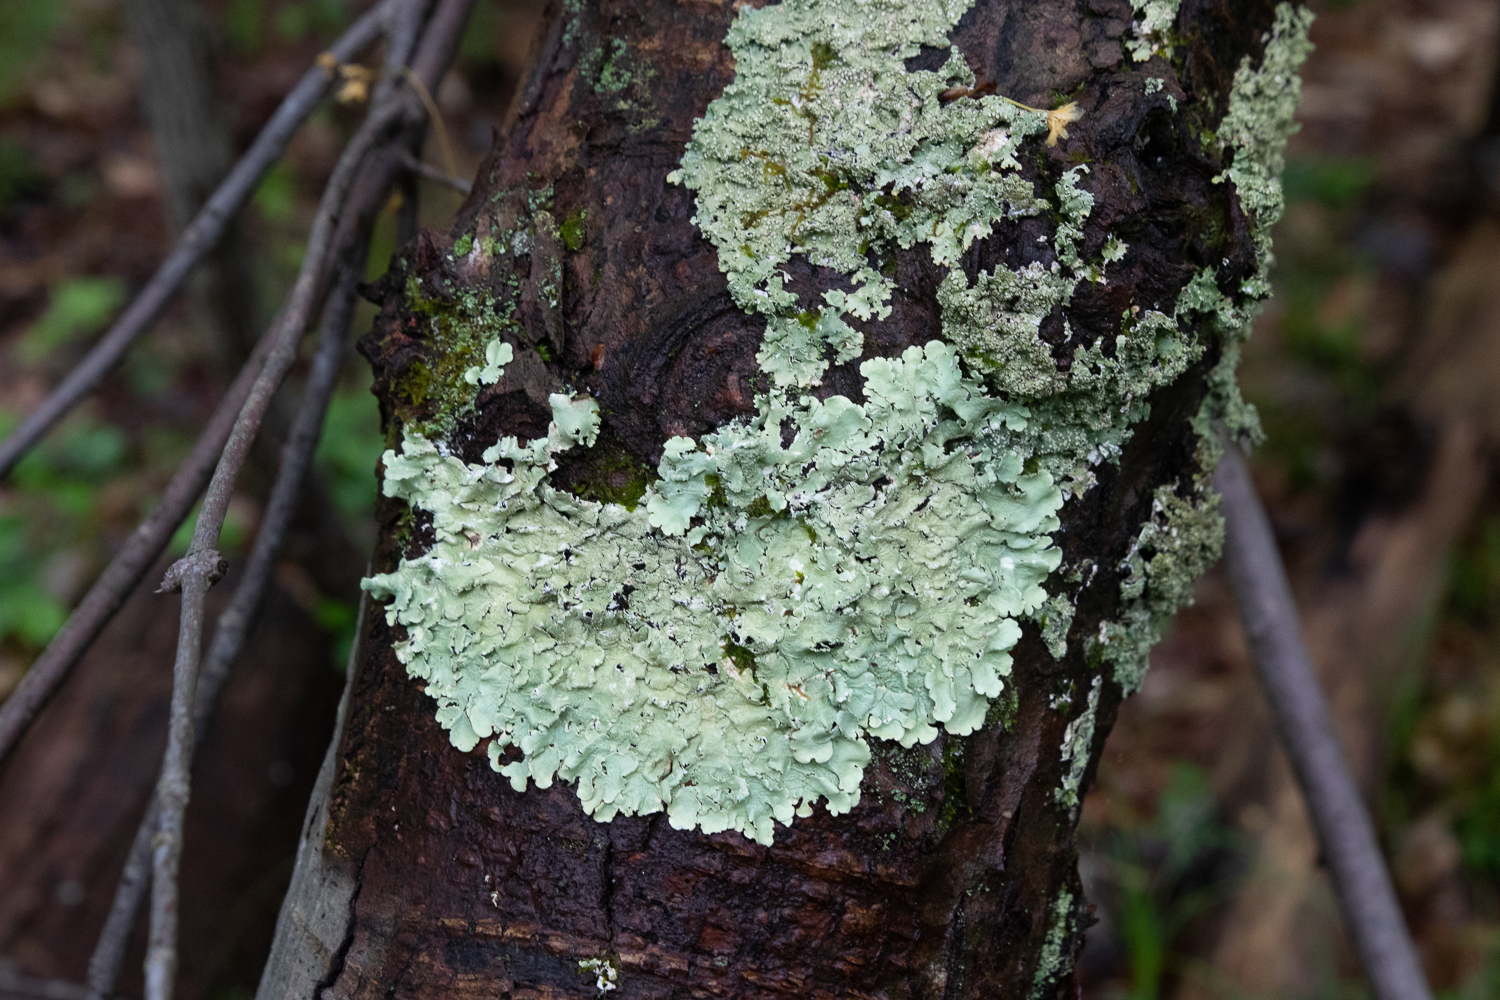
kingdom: Fungi
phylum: Ascomycota
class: Lecanoromycetes
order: Lecanorales
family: Parmeliaceae
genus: Flavoparmelia
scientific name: Flavoparmelia caperata
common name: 40-mile per hour lichen
